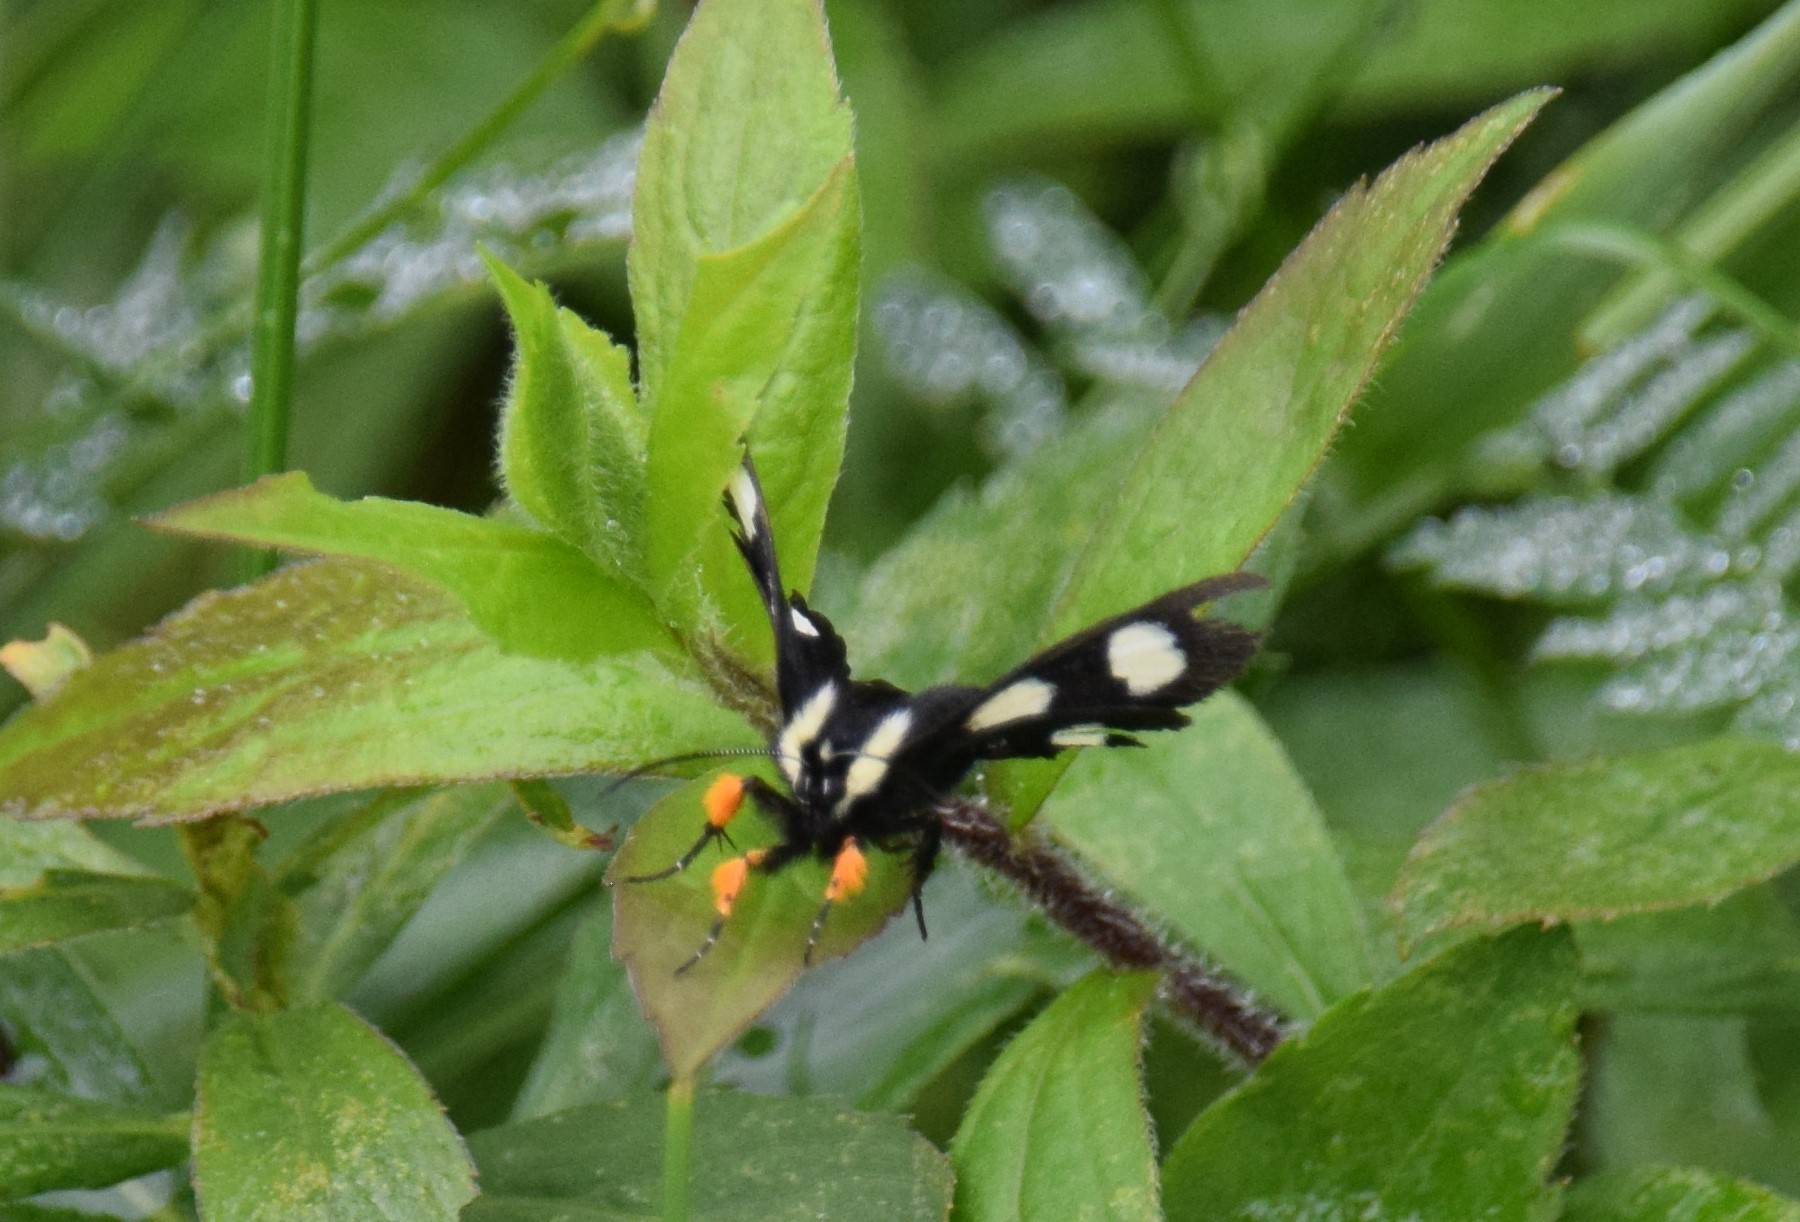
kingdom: Animalia
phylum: Arthropoda
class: Insecta
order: Lepidoptera
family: Noctuidae
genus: Alypia
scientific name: Alypia langtonii
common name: Fireweed caterpillar
